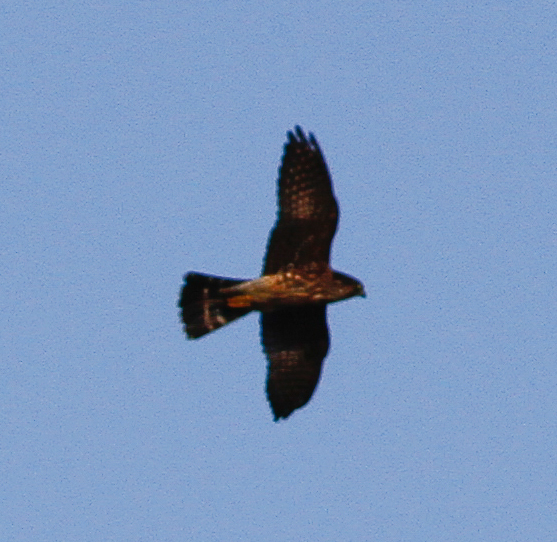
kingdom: Animalia
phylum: Chordata
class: Aves
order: Falconiformes
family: Falconidae
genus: Falco
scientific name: Falco columbarius
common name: Merlin
